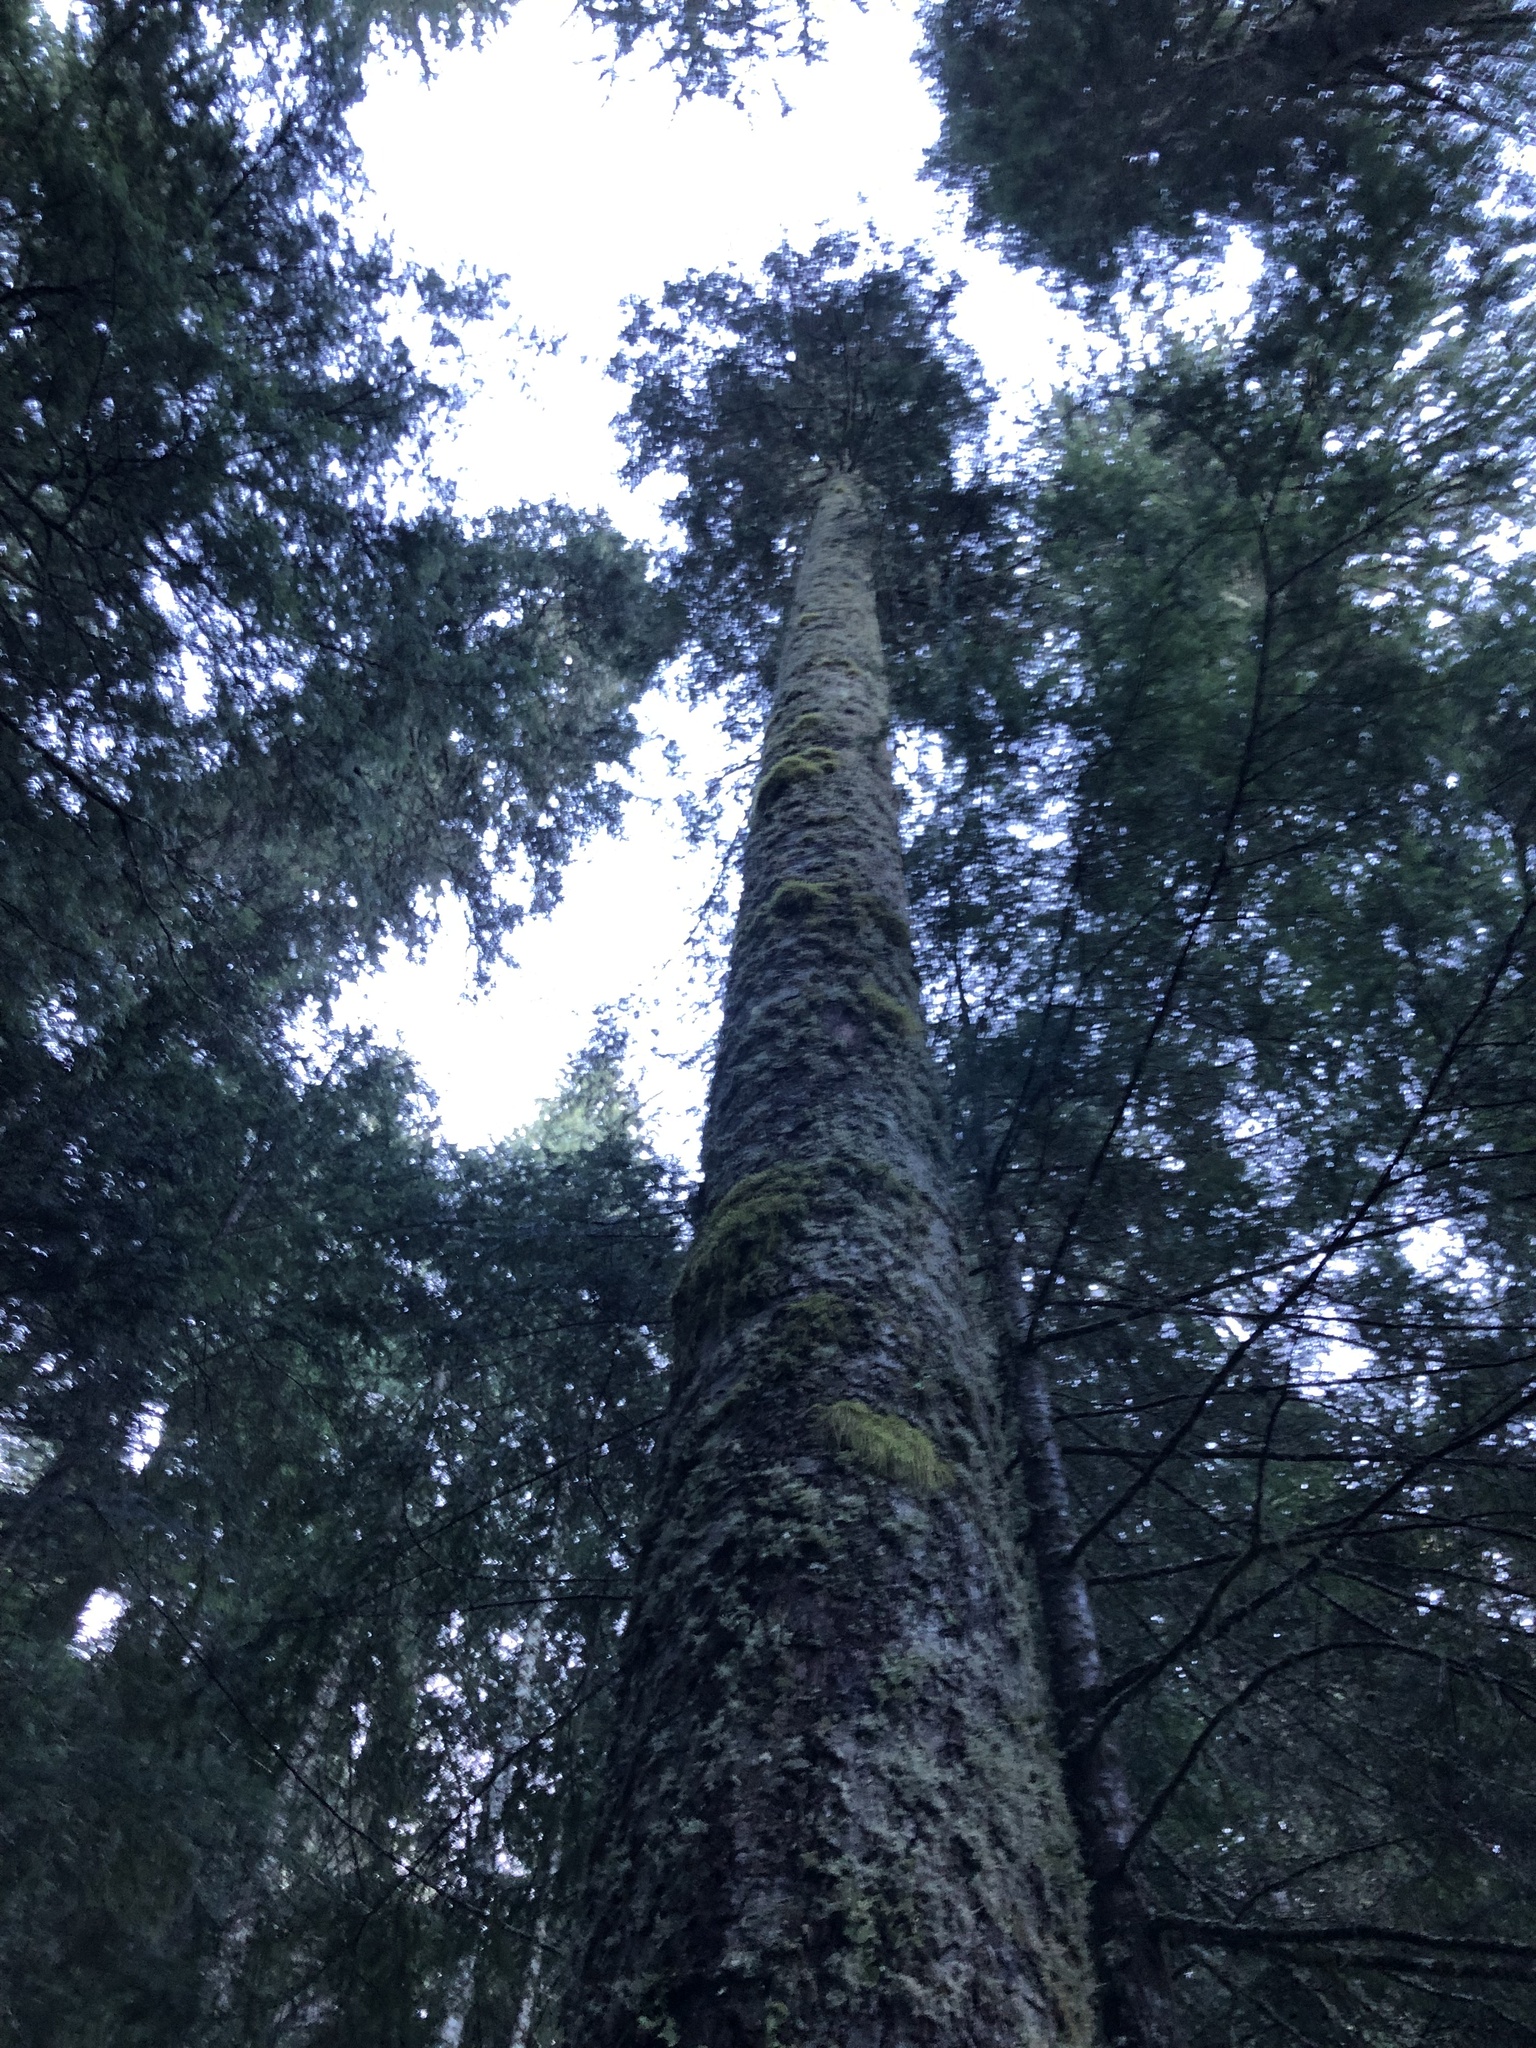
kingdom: Plantae
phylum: Tracheophyta
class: Pinopsida
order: Pinales
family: Pinaceae
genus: Abies
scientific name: Abies amabilis
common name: Pacific silver fir
